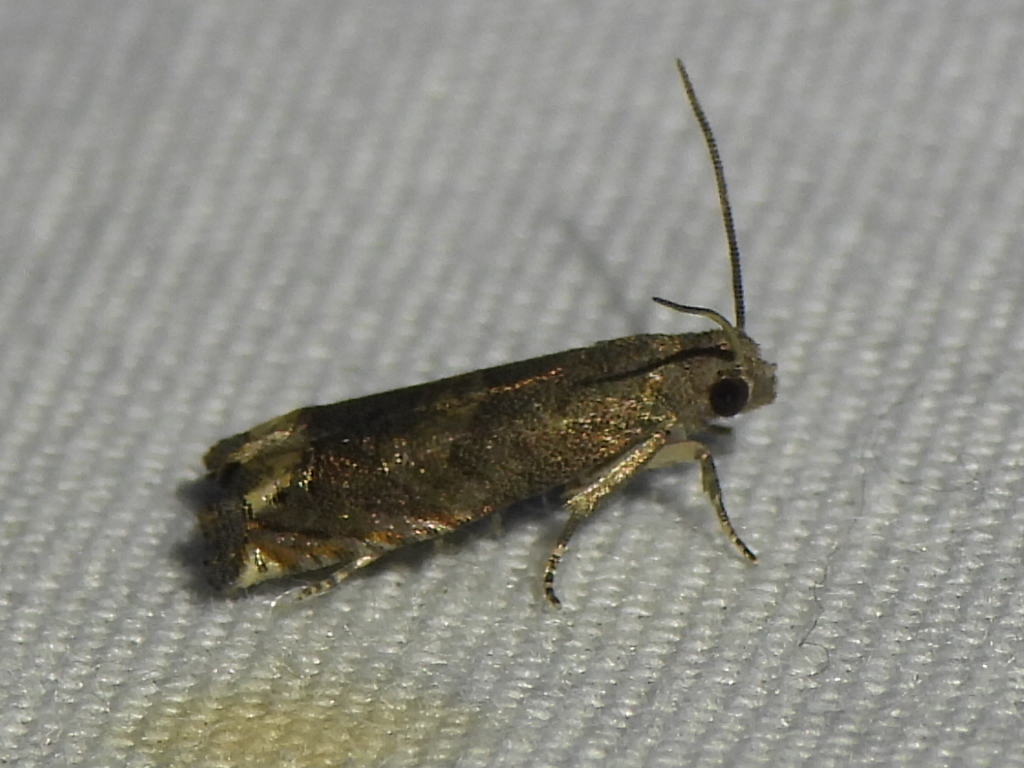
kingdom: Animalia
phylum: Arthropoda
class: Insecta
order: Lepidoptera
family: Tortricidae
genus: Epiblema
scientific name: Epiblema strenuana
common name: Ragweed borer moth
